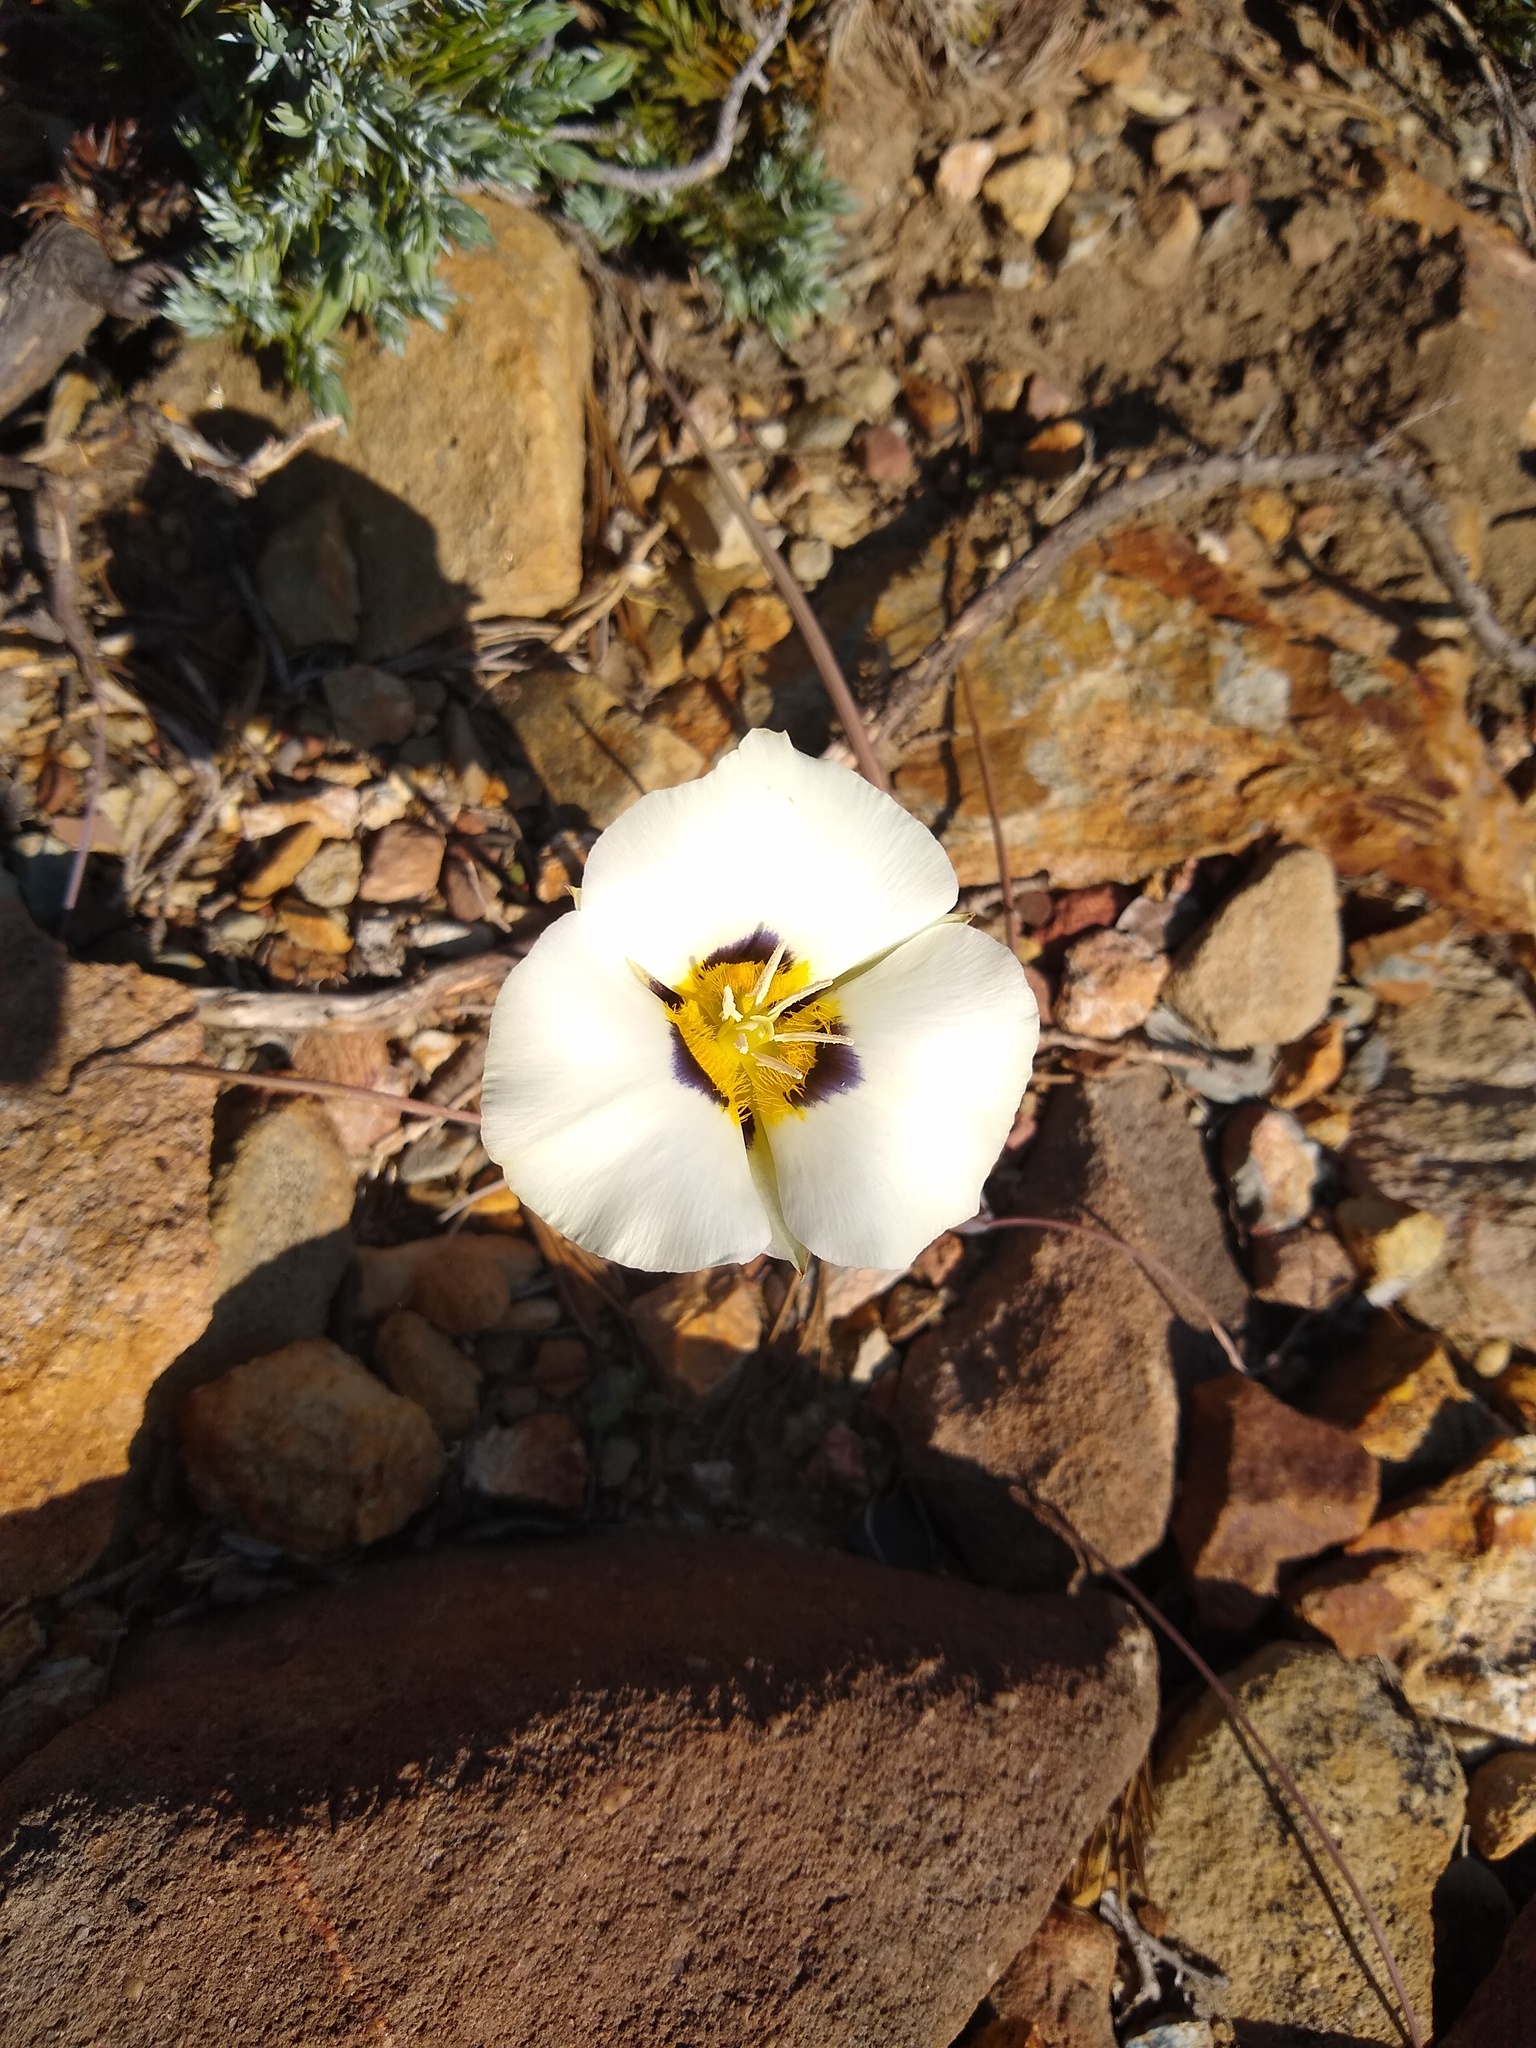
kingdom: Plantae
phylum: Tracheophyta
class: Liliopsida
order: Liliales
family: Liliaceae
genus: Calochortus
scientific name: Calochortus leichtlinii
